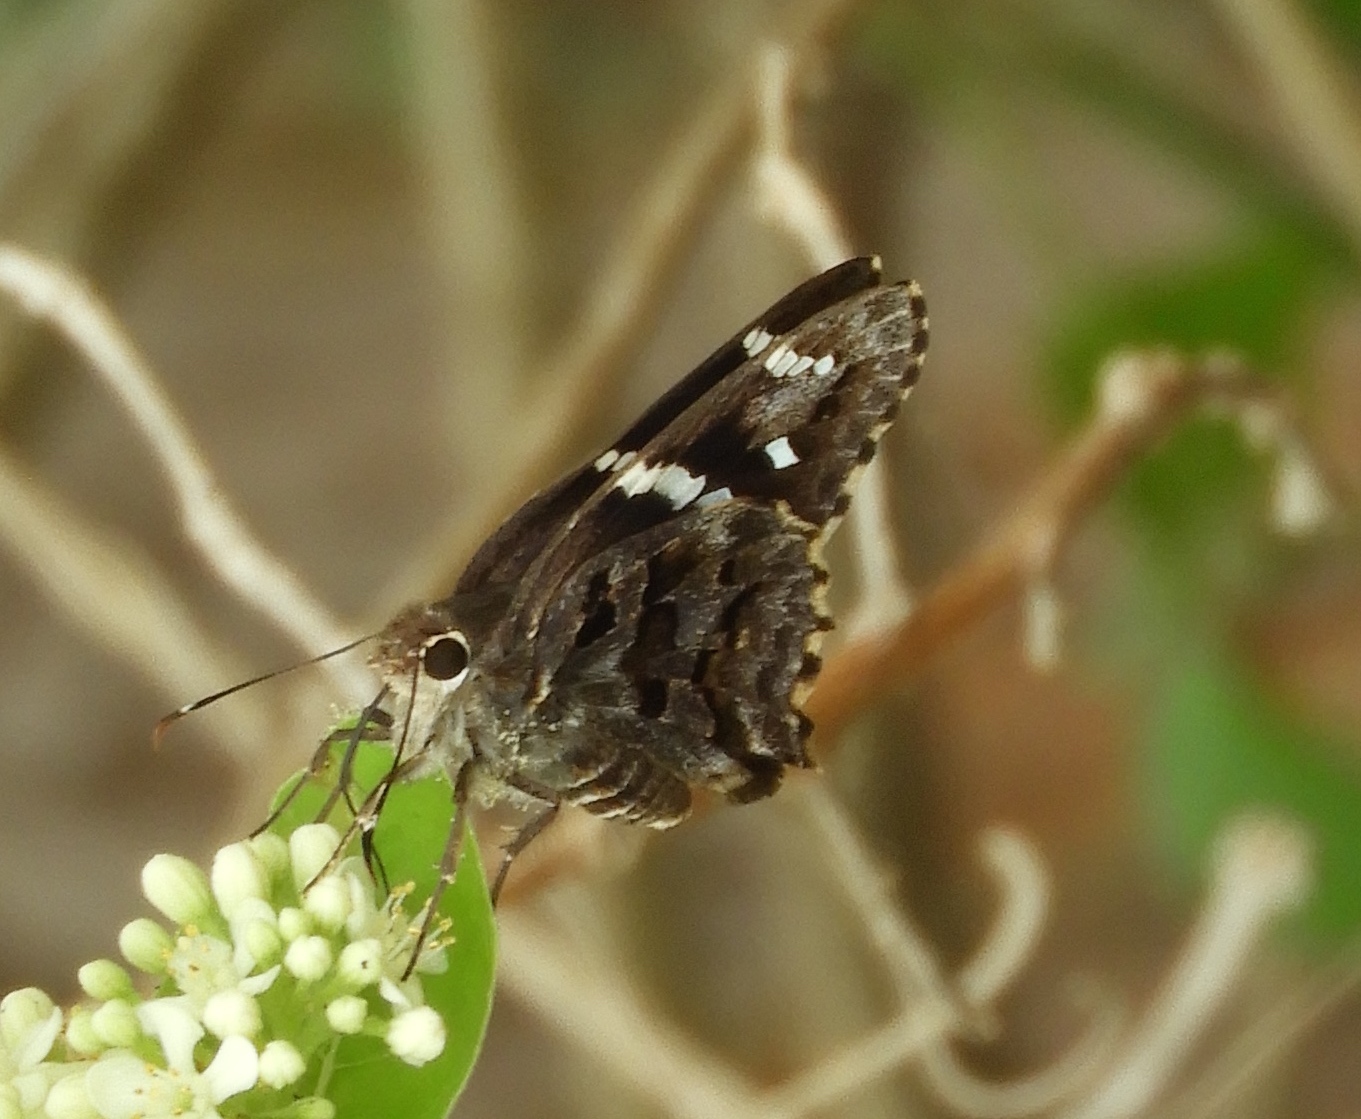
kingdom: Animalia
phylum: Arthropoda
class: Insecta
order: Lepidoptera
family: Hesperiidae
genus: Codatractus
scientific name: Codatractus melon
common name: Melon mottled-skipper
